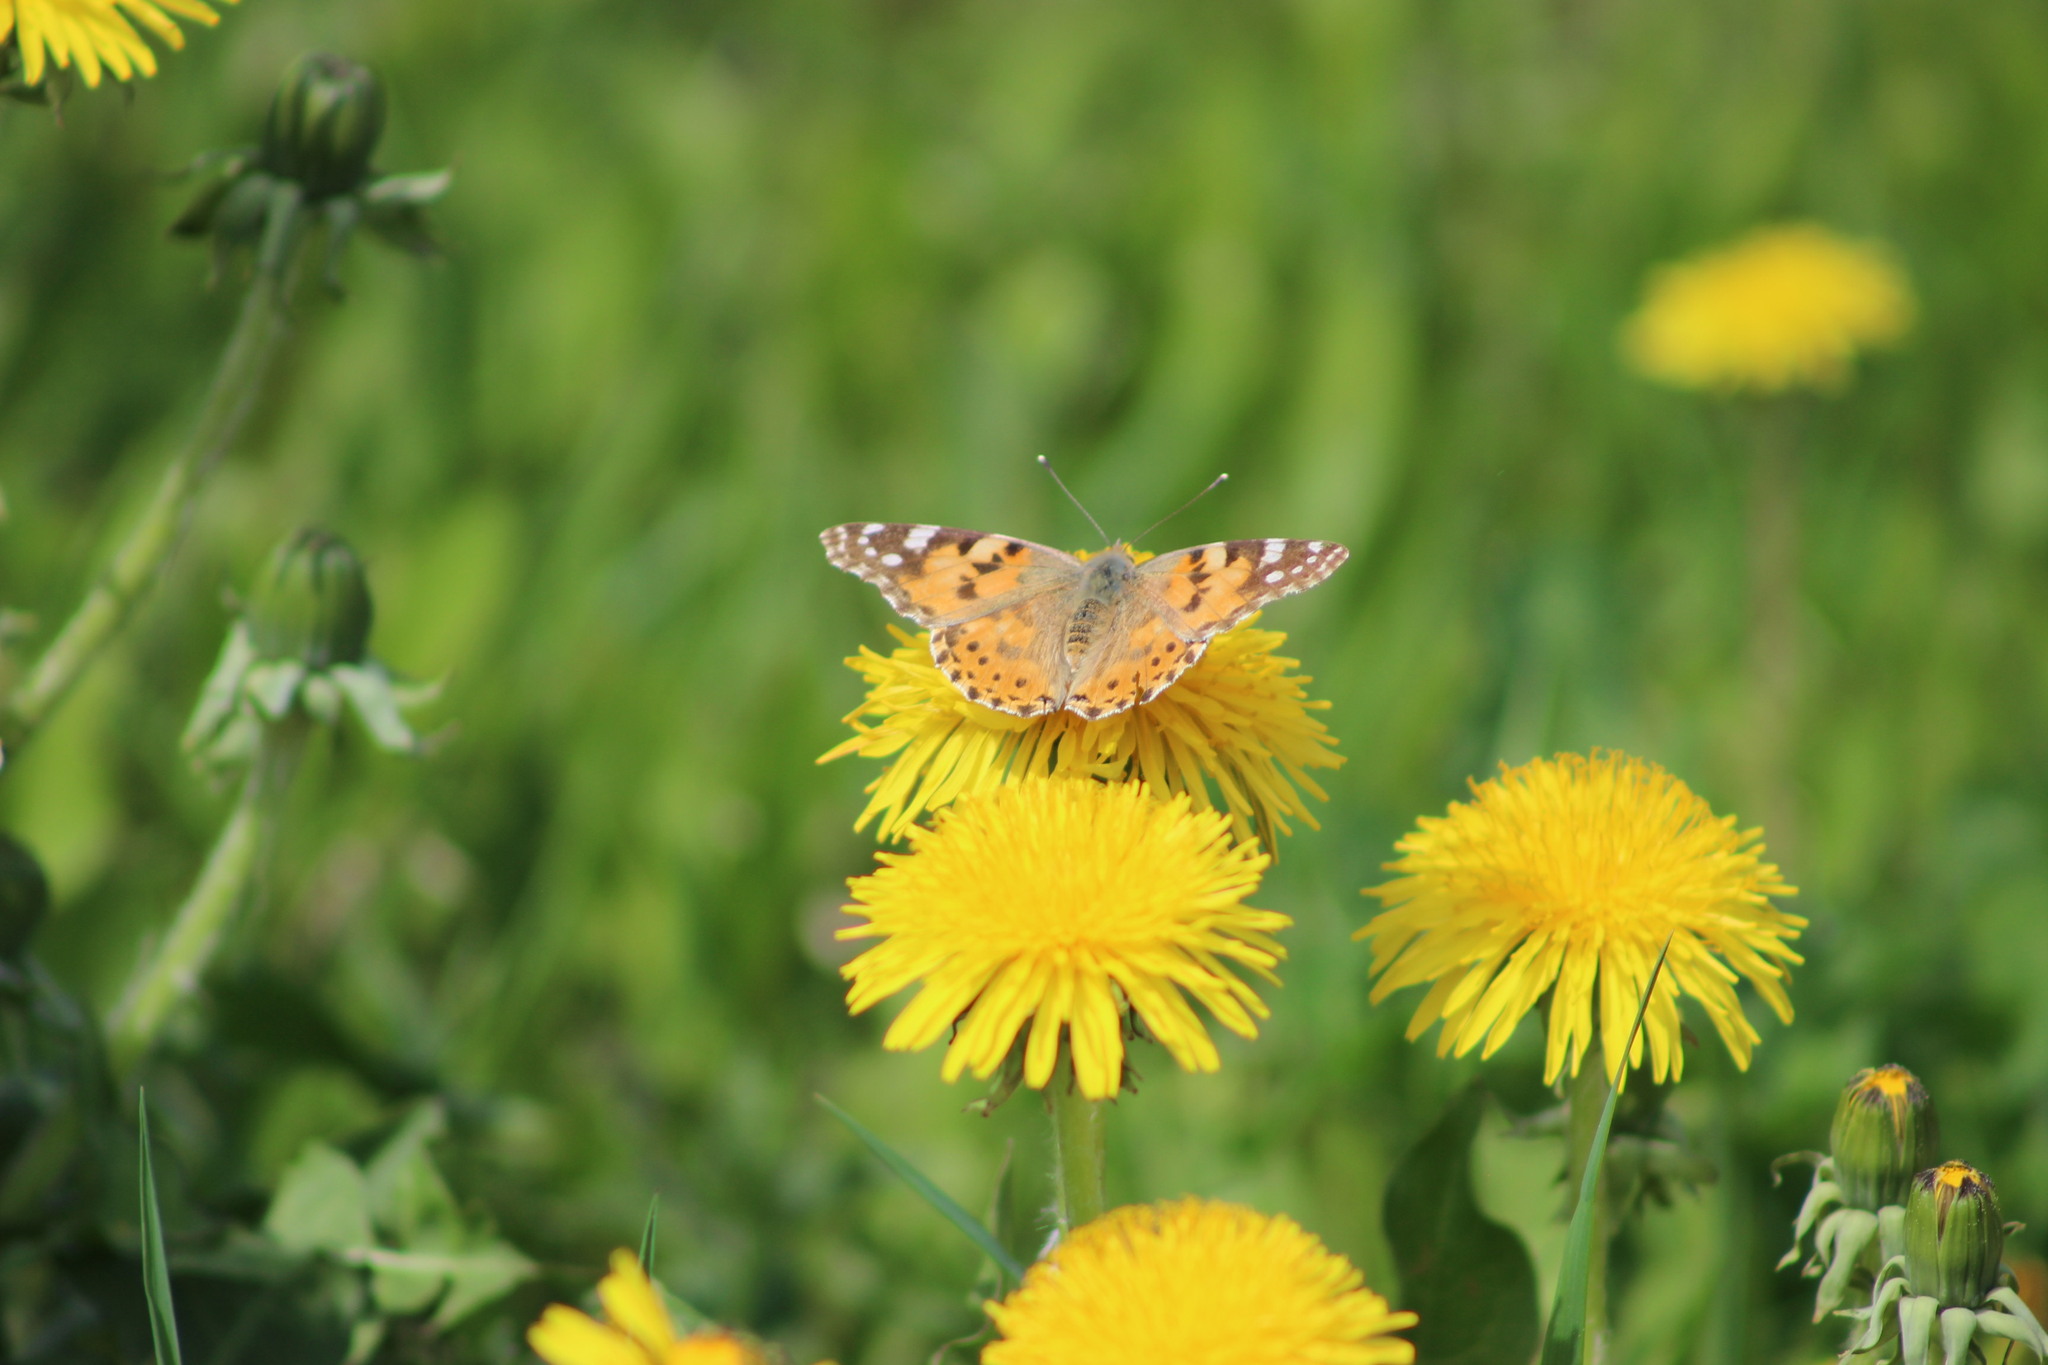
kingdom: Animalia
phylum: Arthropoda
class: Insecta
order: Lepidoptera
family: Nymphalidae
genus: Vanessa
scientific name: Vanessa cardui
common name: Painted lady
